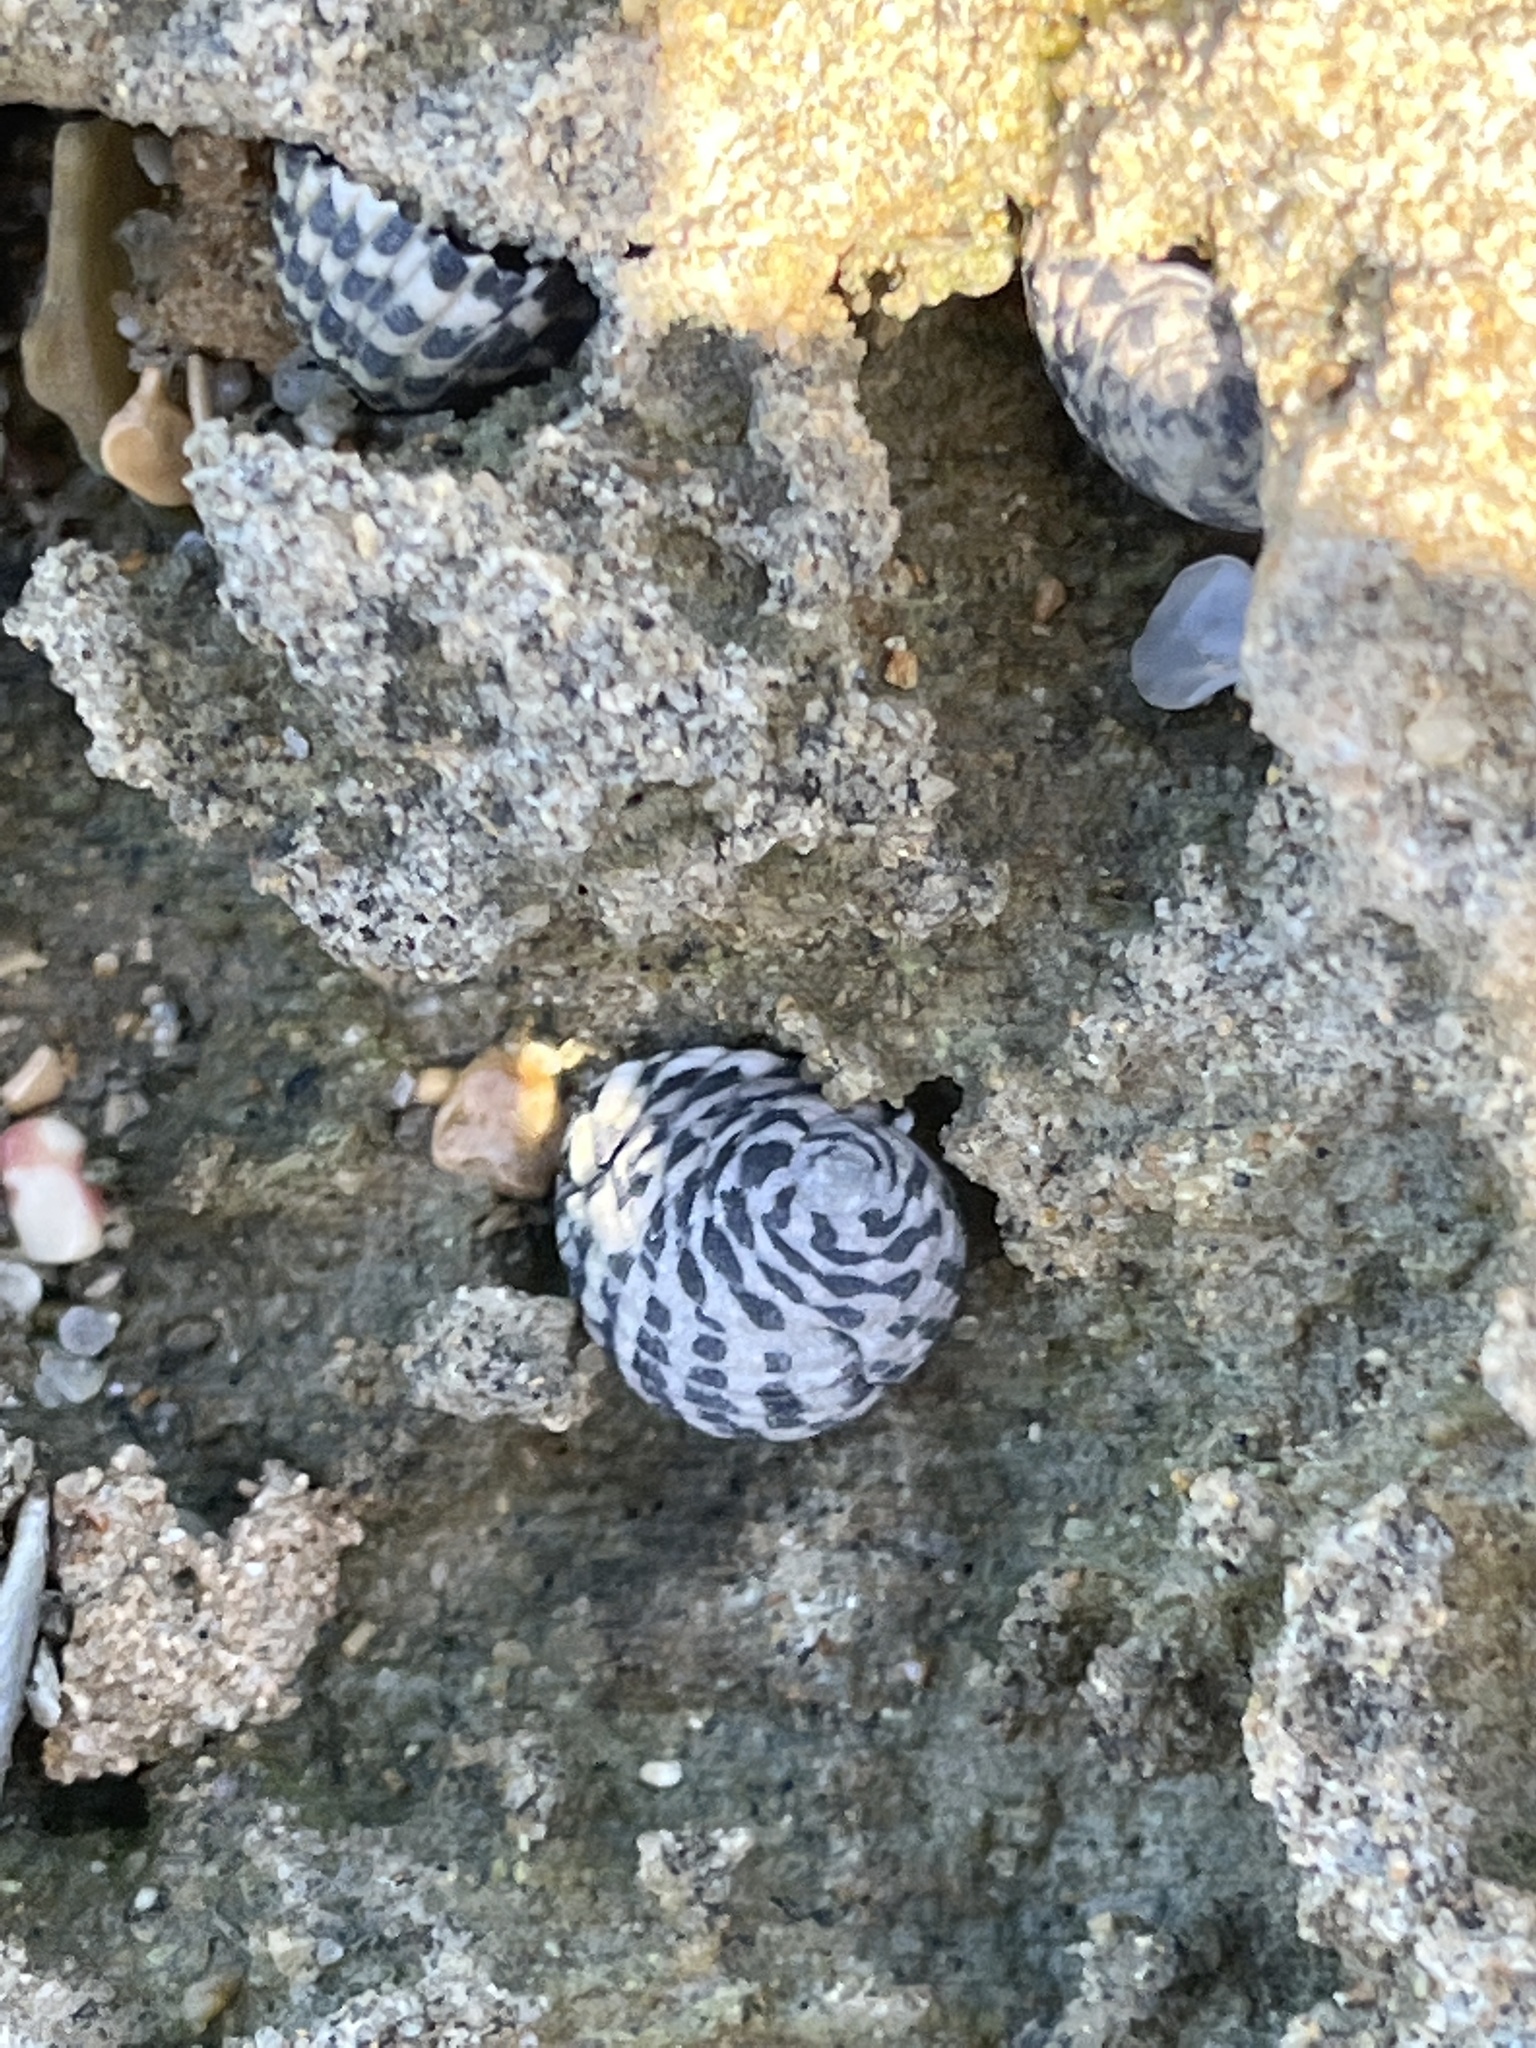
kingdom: Animalia
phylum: Mollusca
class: Gastropoda
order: Cycloneritida
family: Neritidae
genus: Nerita
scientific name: Nerita tessellata
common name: Checkered nerite
